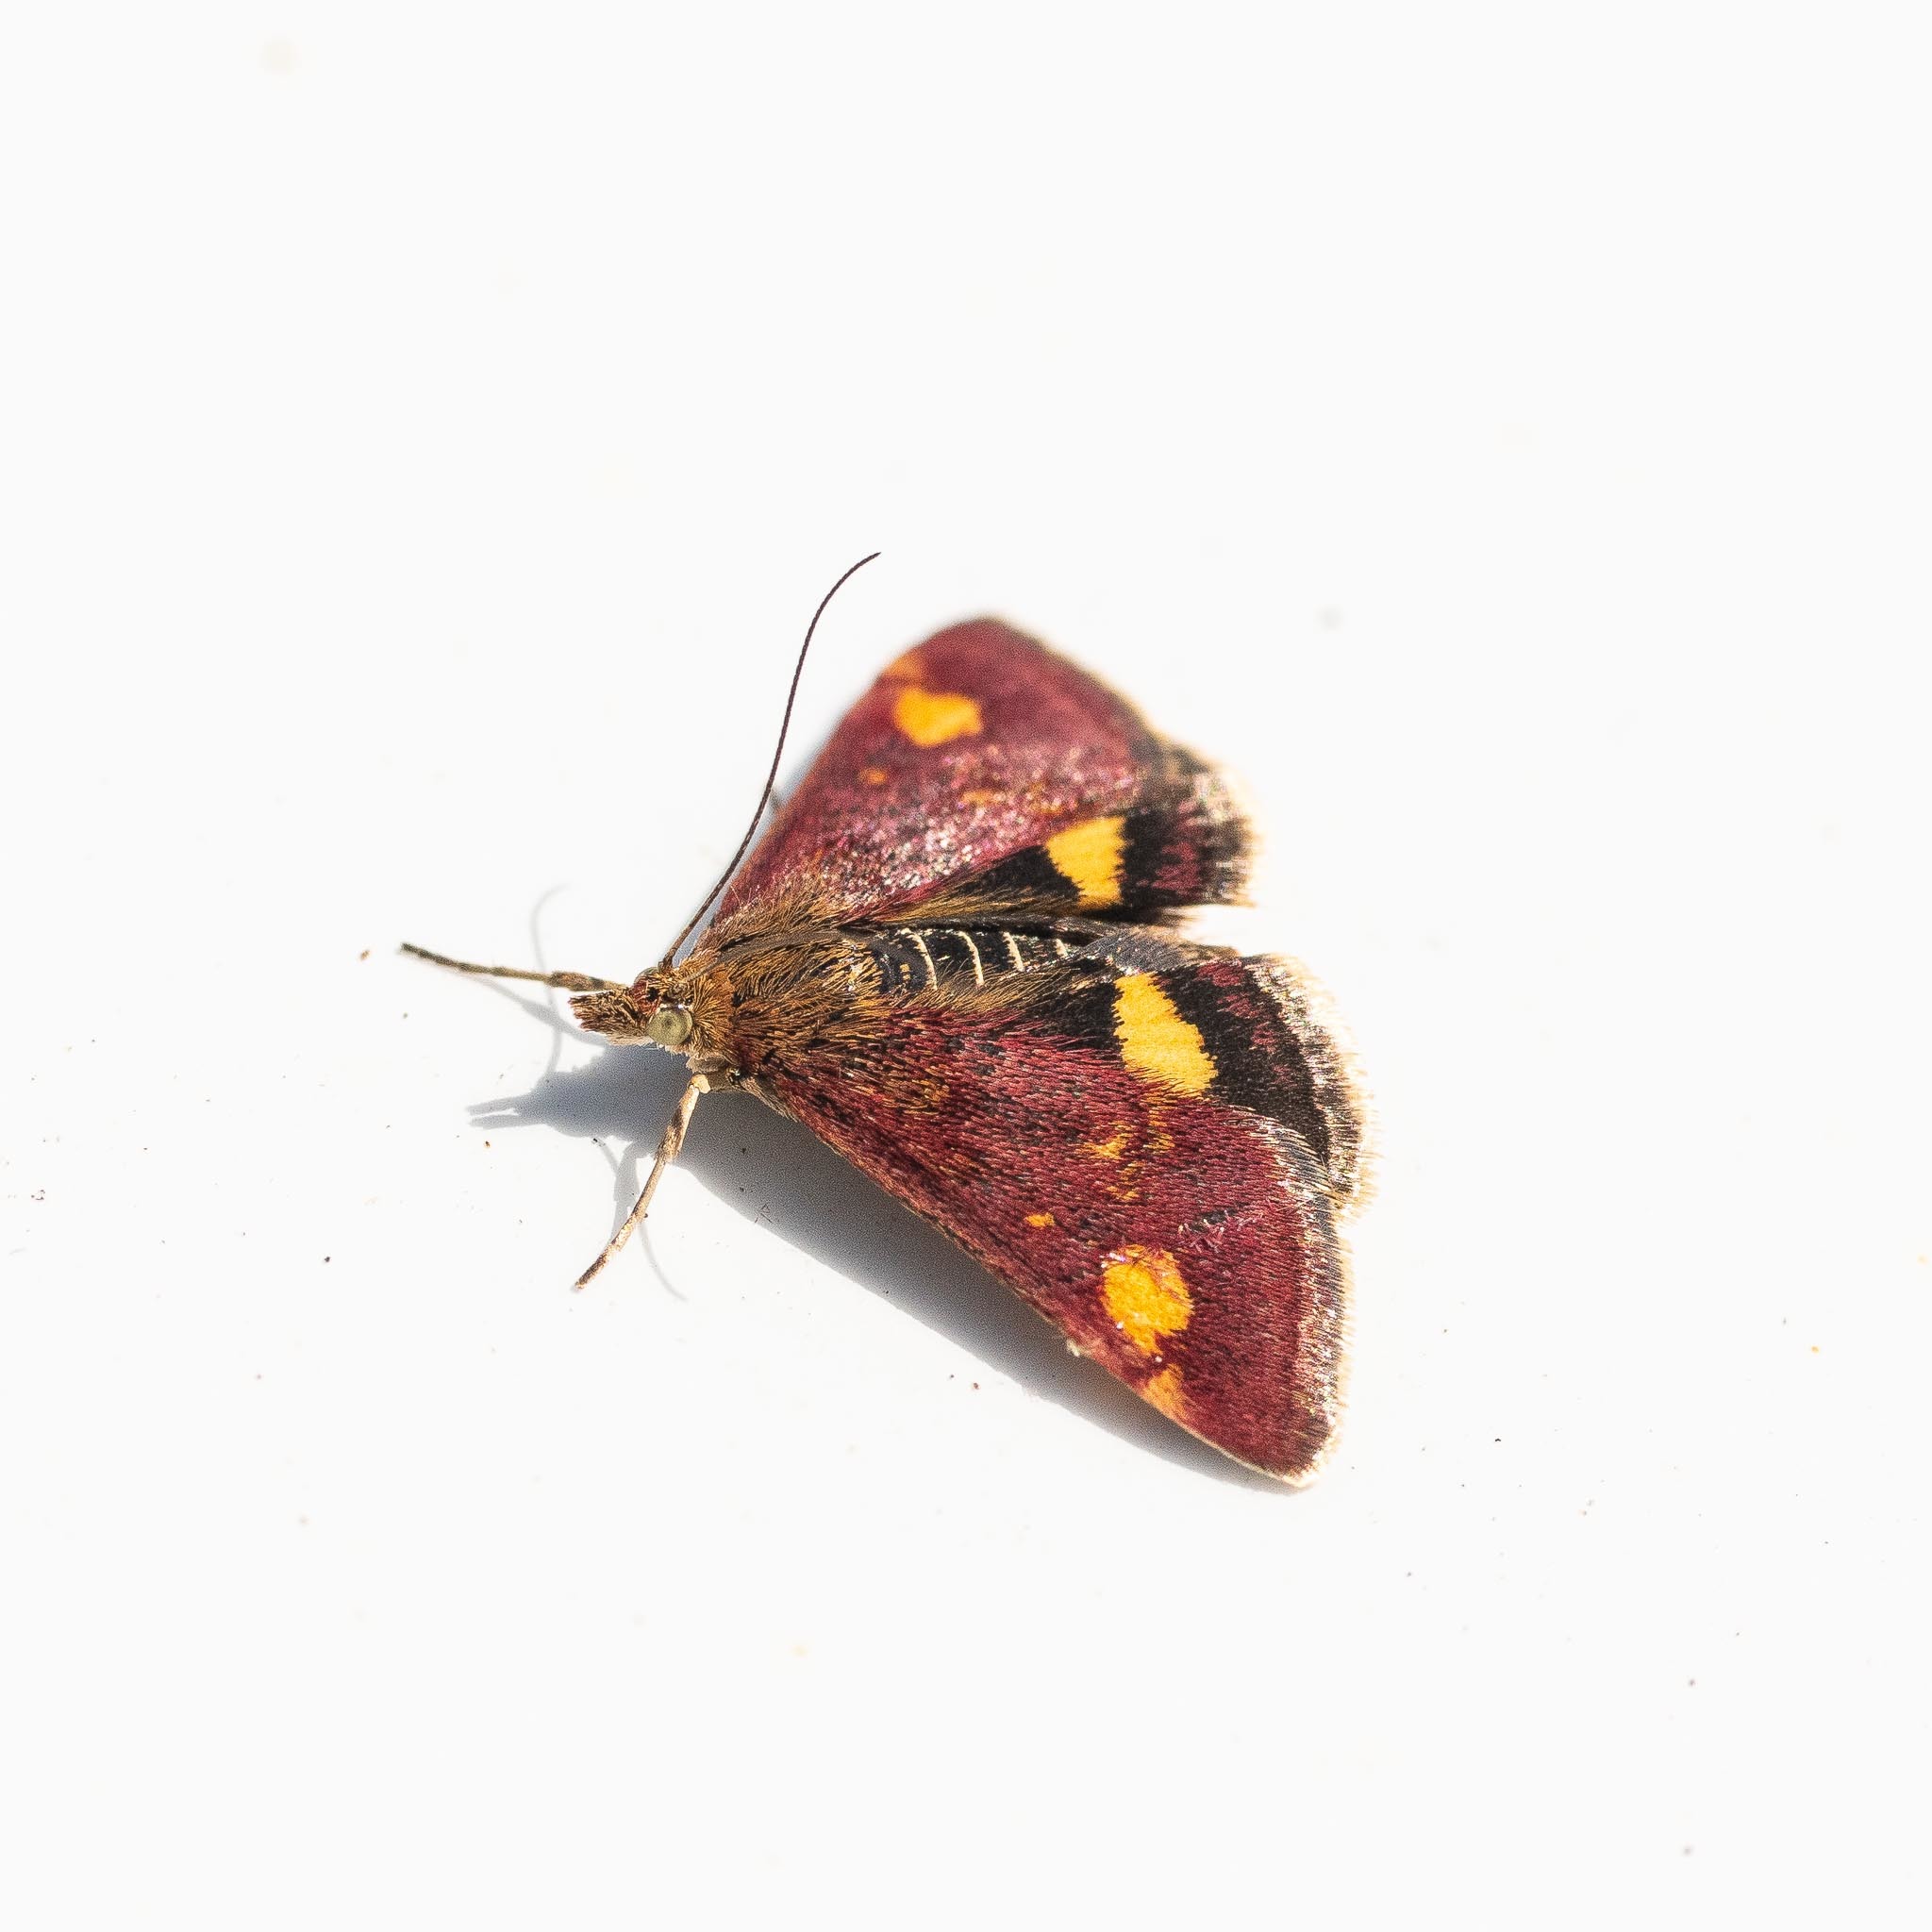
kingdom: Animalia
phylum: Arthropoda
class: Insecta
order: Lepidoptera
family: Crambidae
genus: Pyrausta
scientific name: Pyrausta aurata
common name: Small purple & gold
